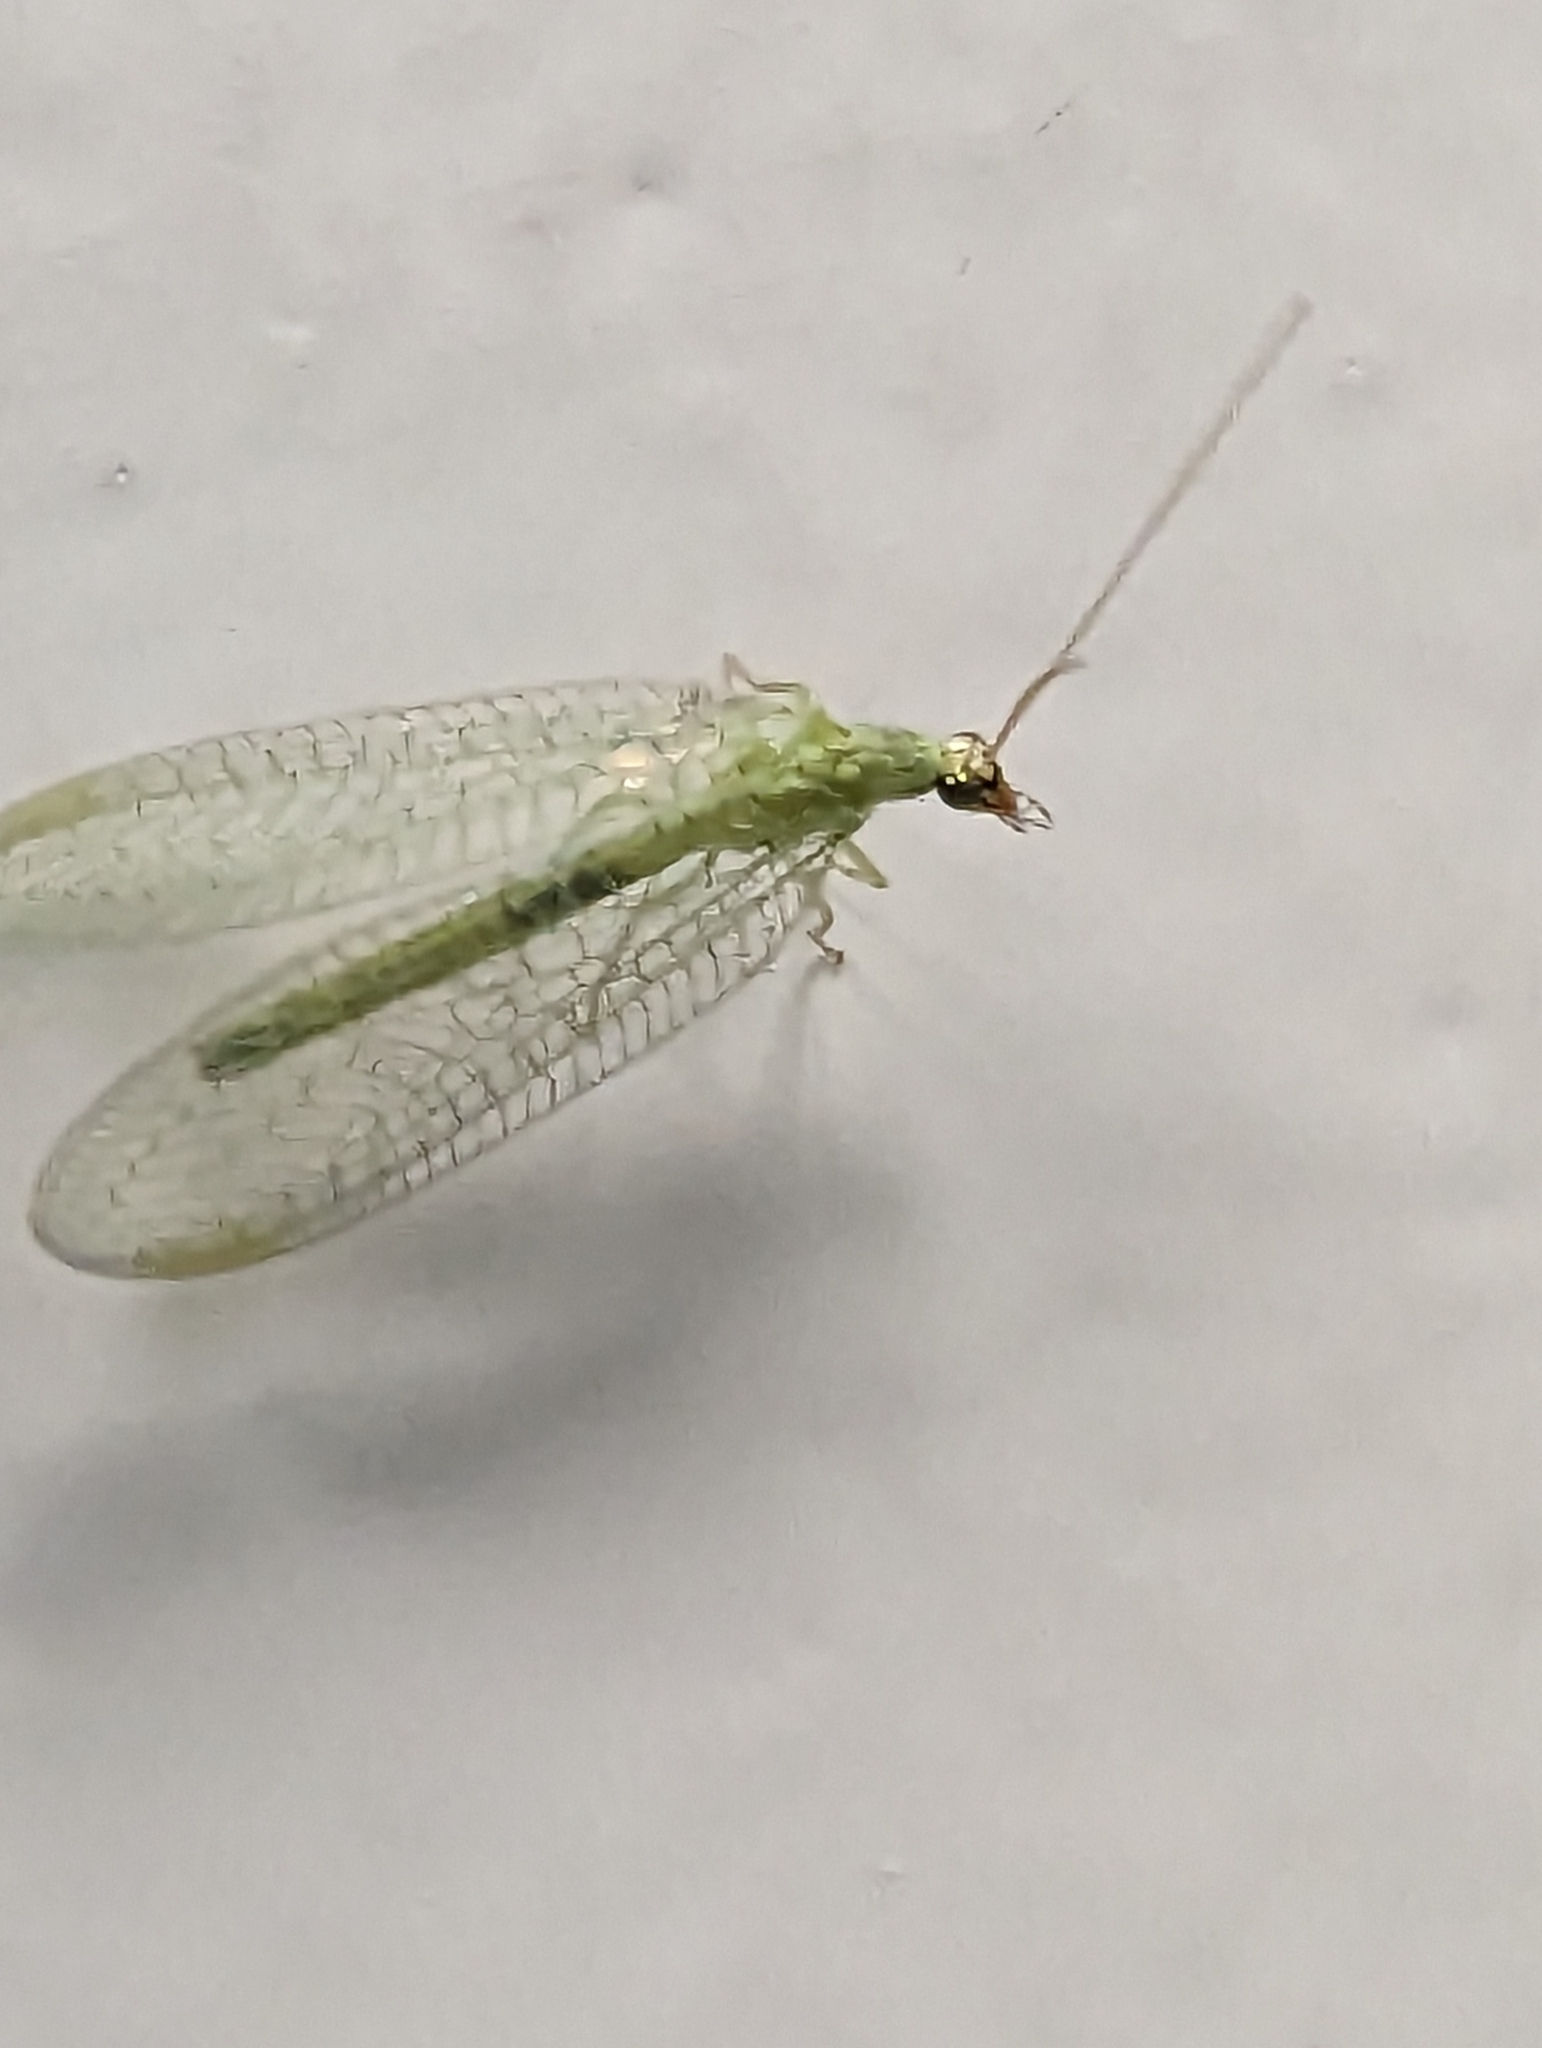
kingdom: Animalia
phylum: Arthropoda
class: Insecta
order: Neuroptera
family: Chrysopidae
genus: Chrysopa
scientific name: Chrysopa oculata
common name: Golden-eyed lacewing
